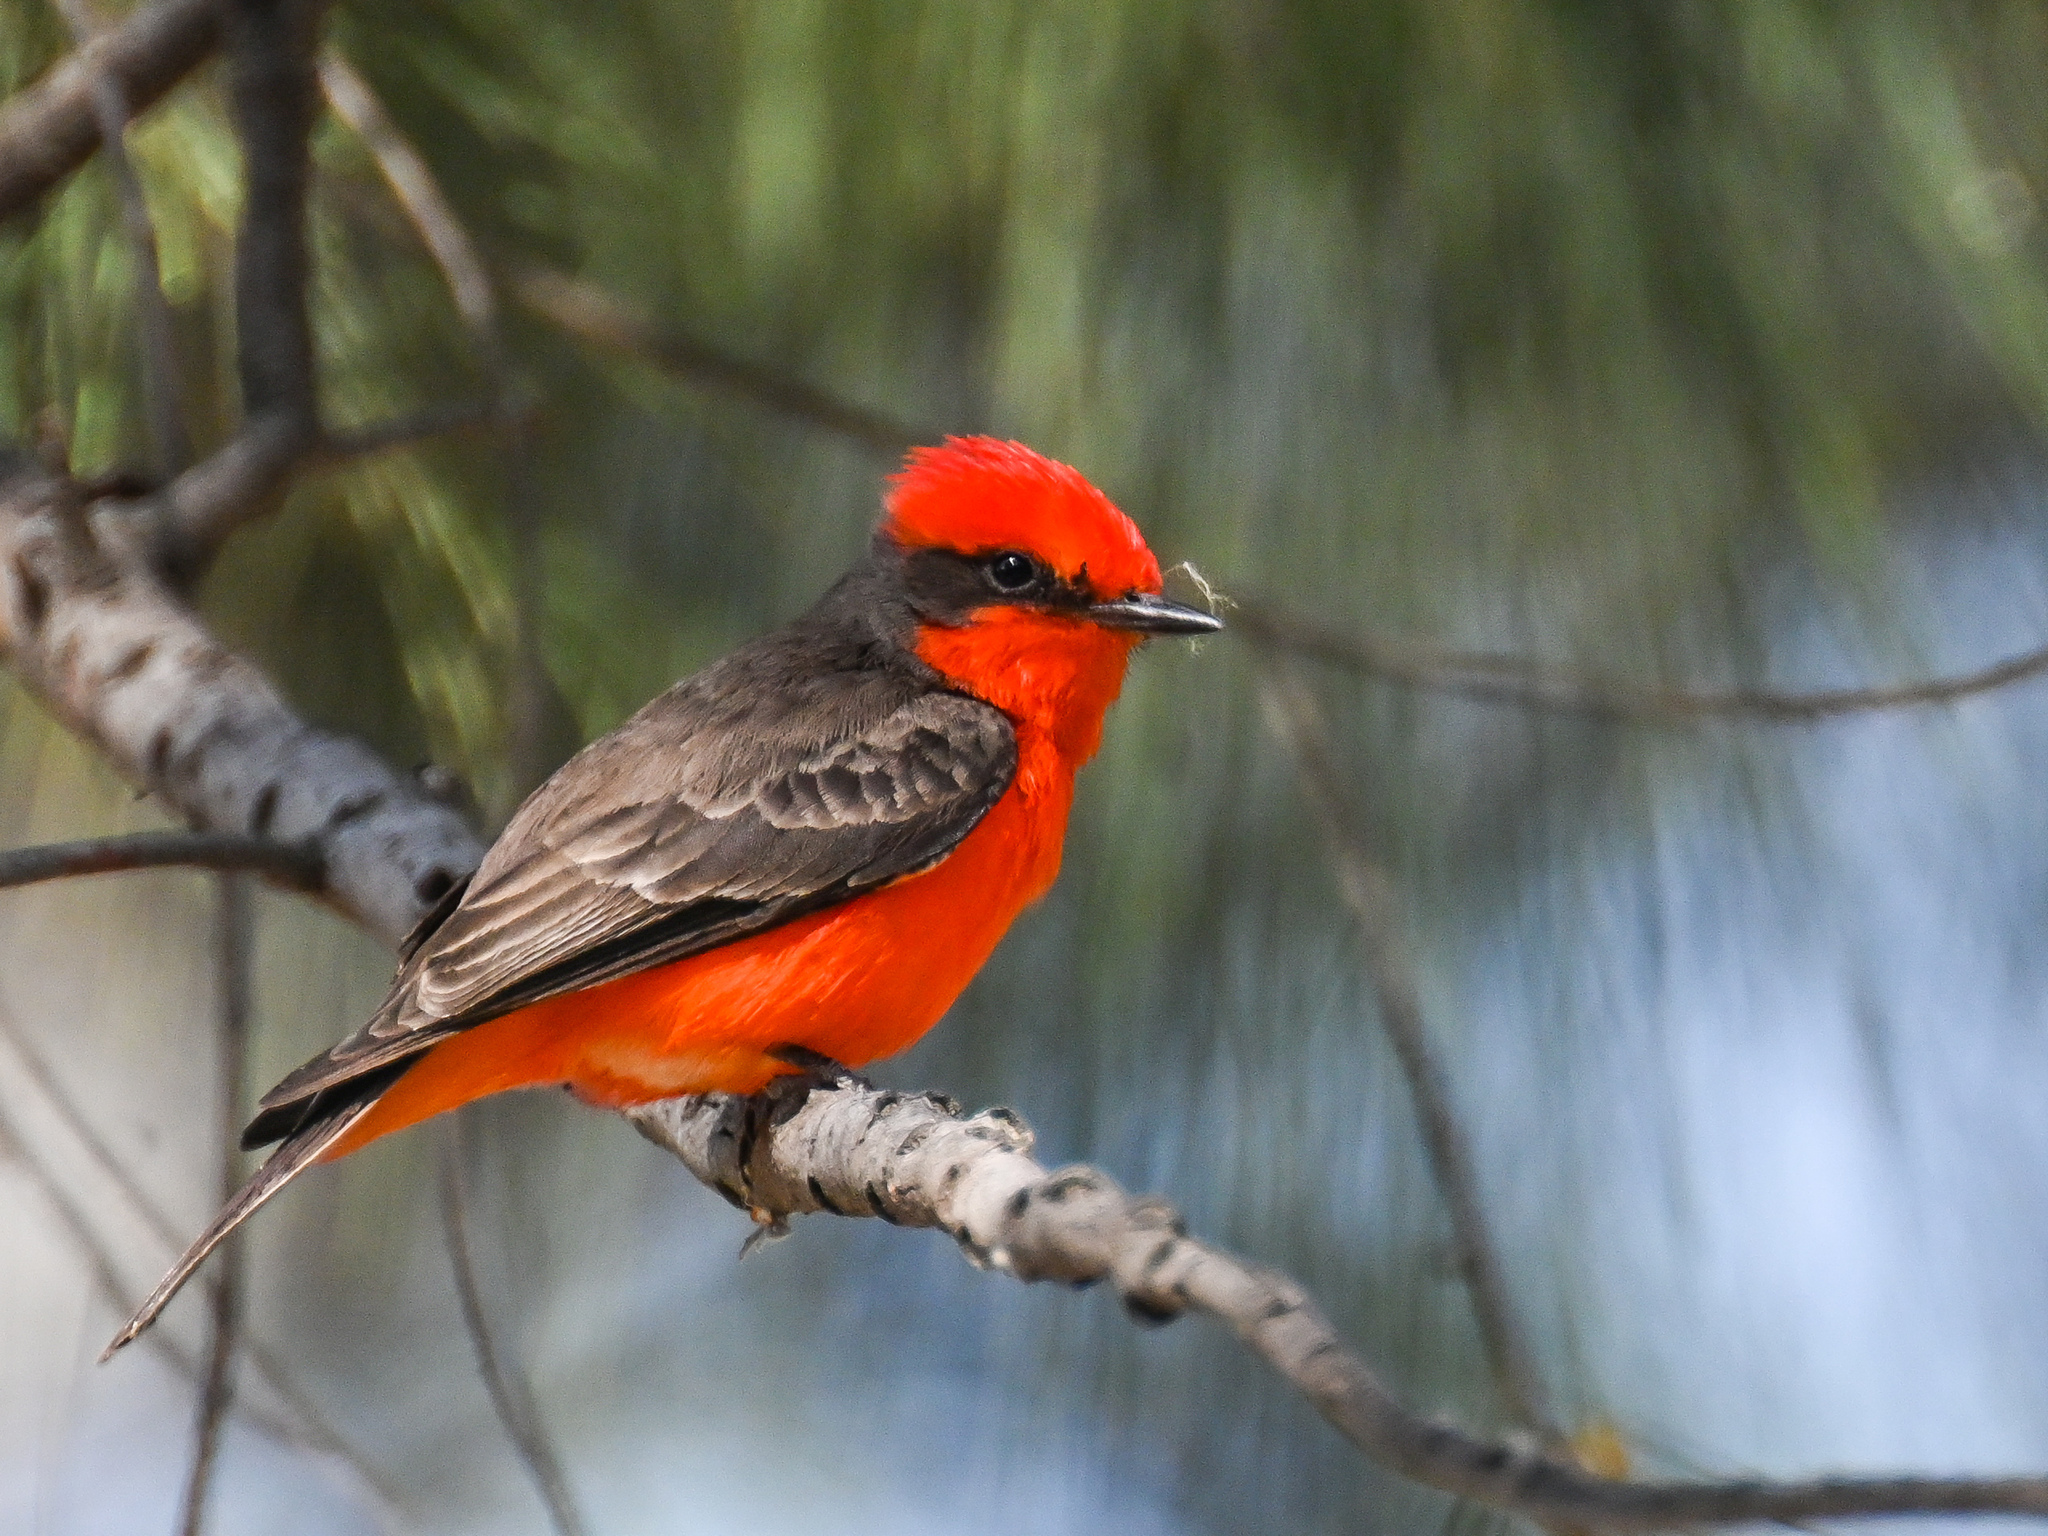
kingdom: Animalia
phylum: Chordata
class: Aves
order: Passeriformes
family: Tyrannidae
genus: Pyrocephalus
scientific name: Pyrocephalus rubinus
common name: Vermilion flycatcher
